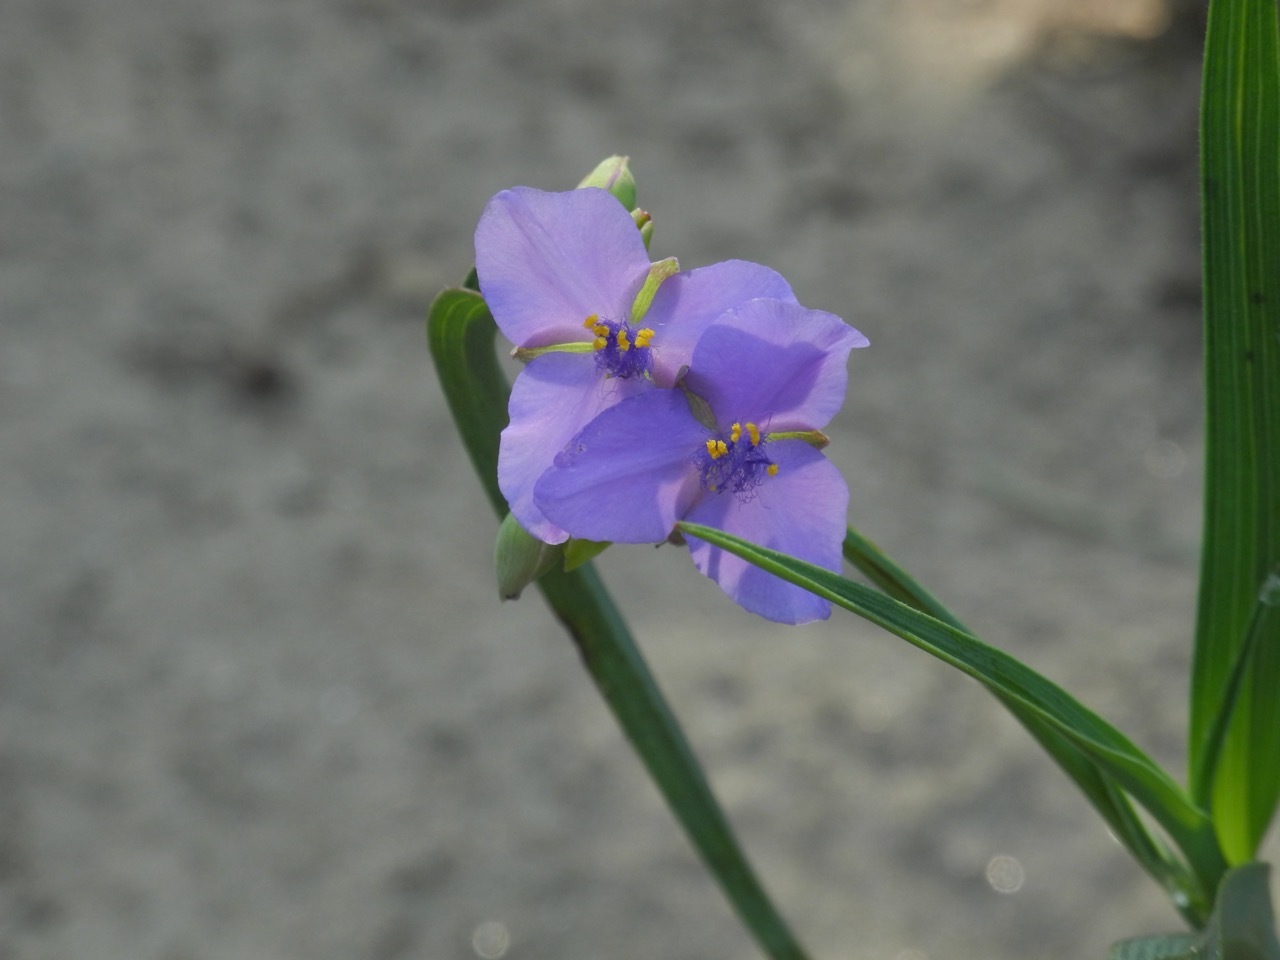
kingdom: Plantae
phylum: Tracheophyta
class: Liliopsida
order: Commelinales
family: Commelinaceae
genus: Tradescantia
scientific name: Tradescantia ohiensis
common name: Ohio spiderwort
